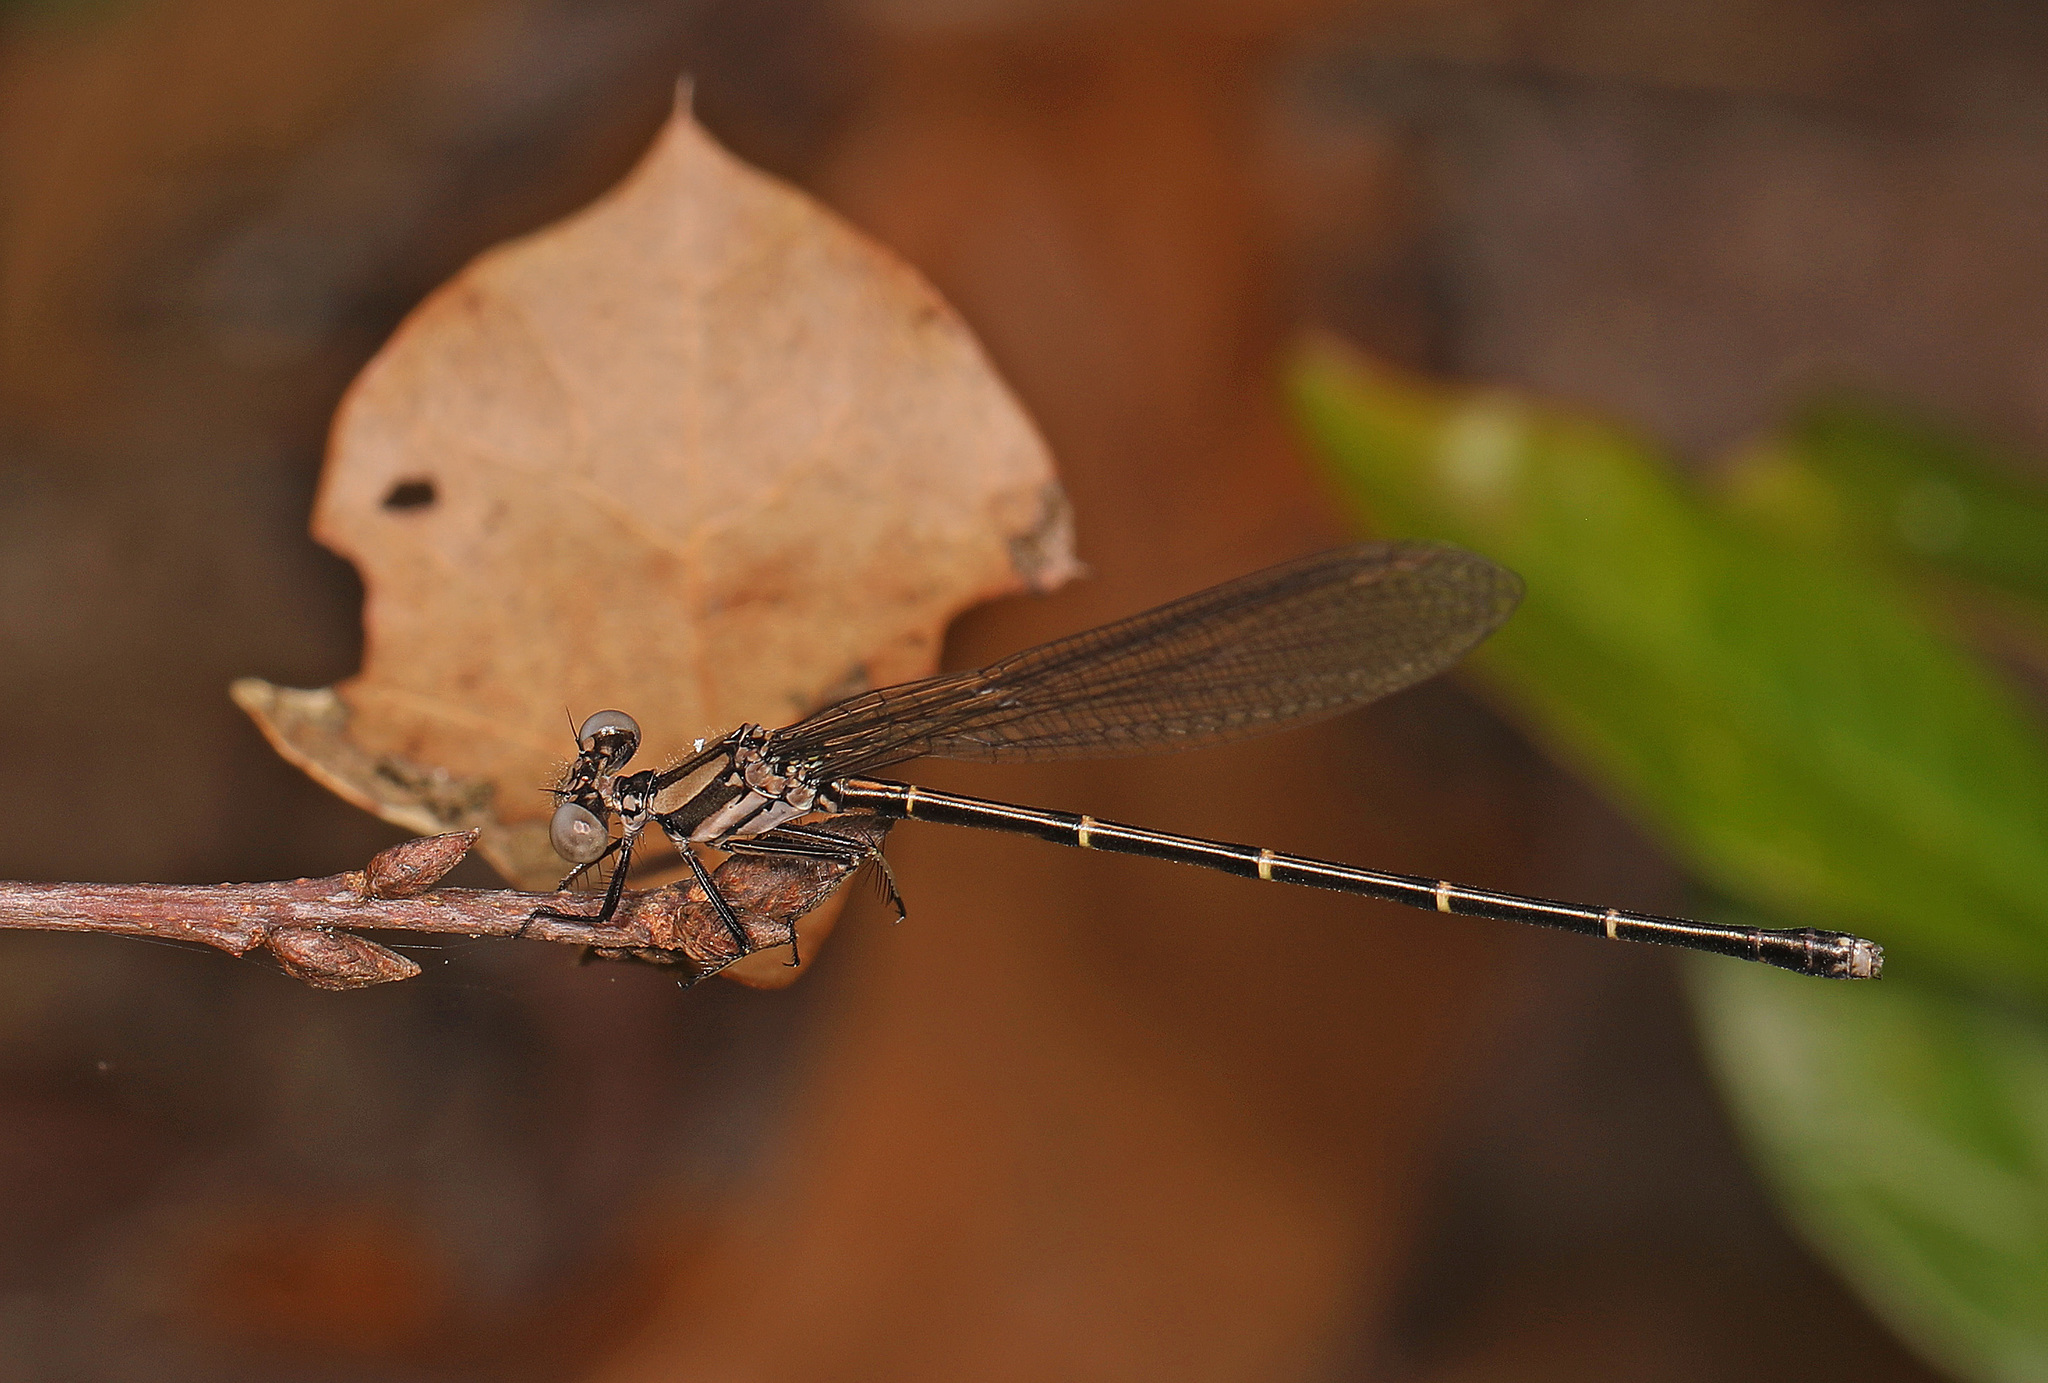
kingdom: Animalia
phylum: Arthropoda
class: Insecta
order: Odonata
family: Coenagrionidae
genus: Argia
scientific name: Argia tibialis
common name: Blue-tipped dancer
